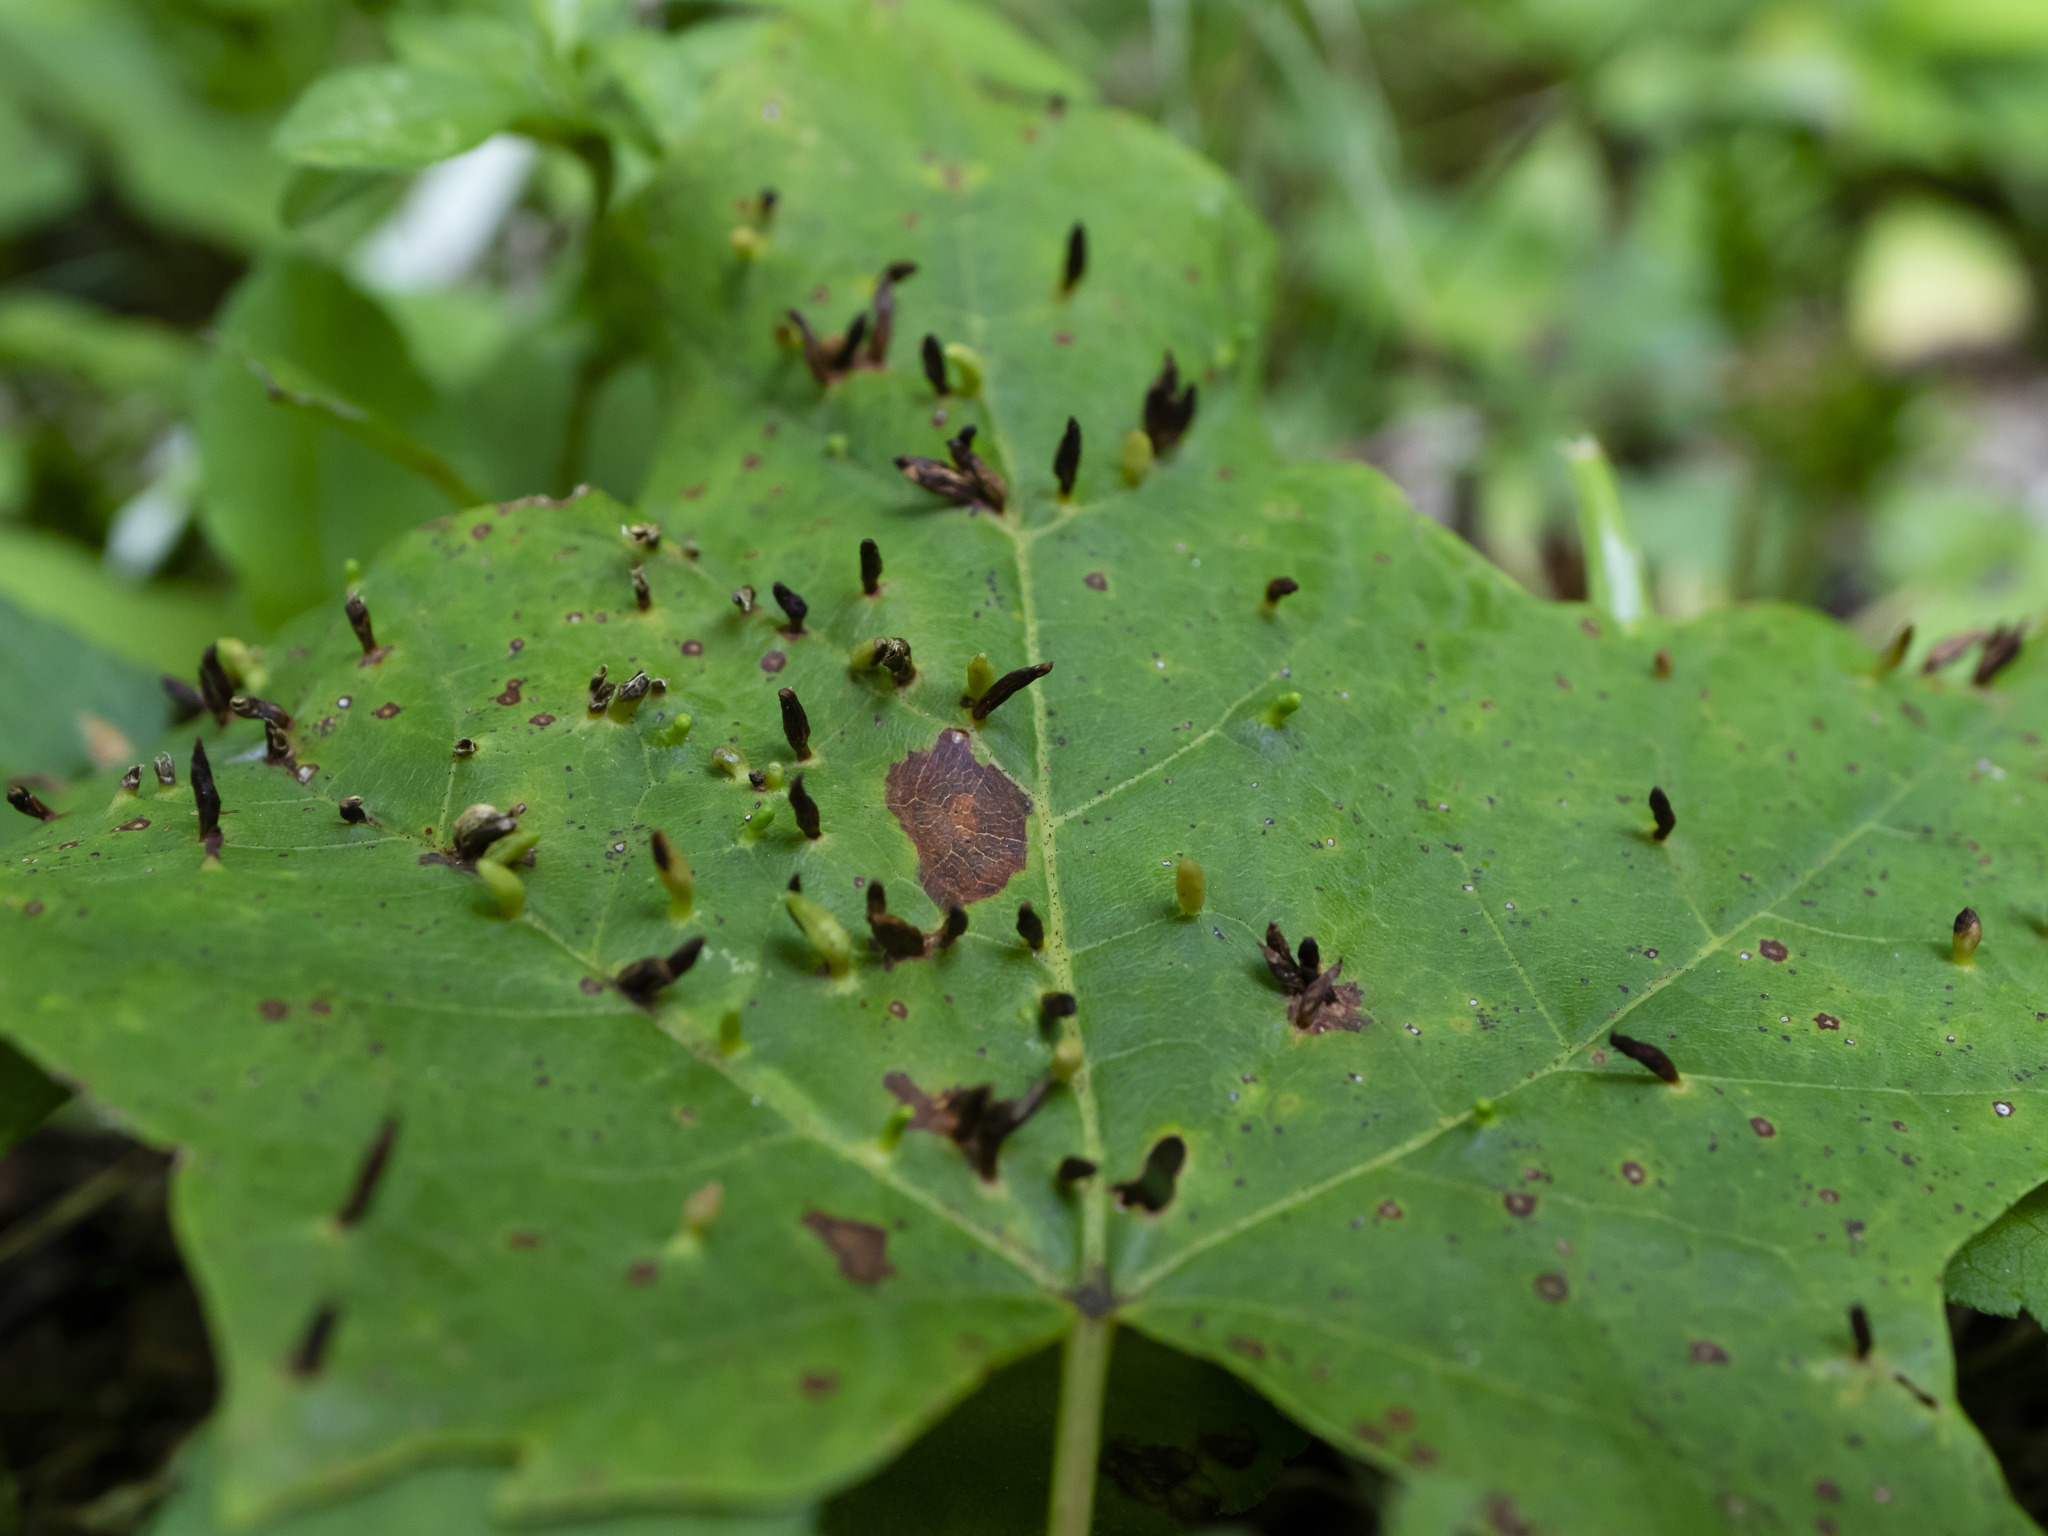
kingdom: Animalia
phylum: Arthropoda
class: Arachnida
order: Trombidiformes
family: Eriophyidae
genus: Vasates
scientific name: Vasates aceriscrumena
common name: Maple spindle gall mite
